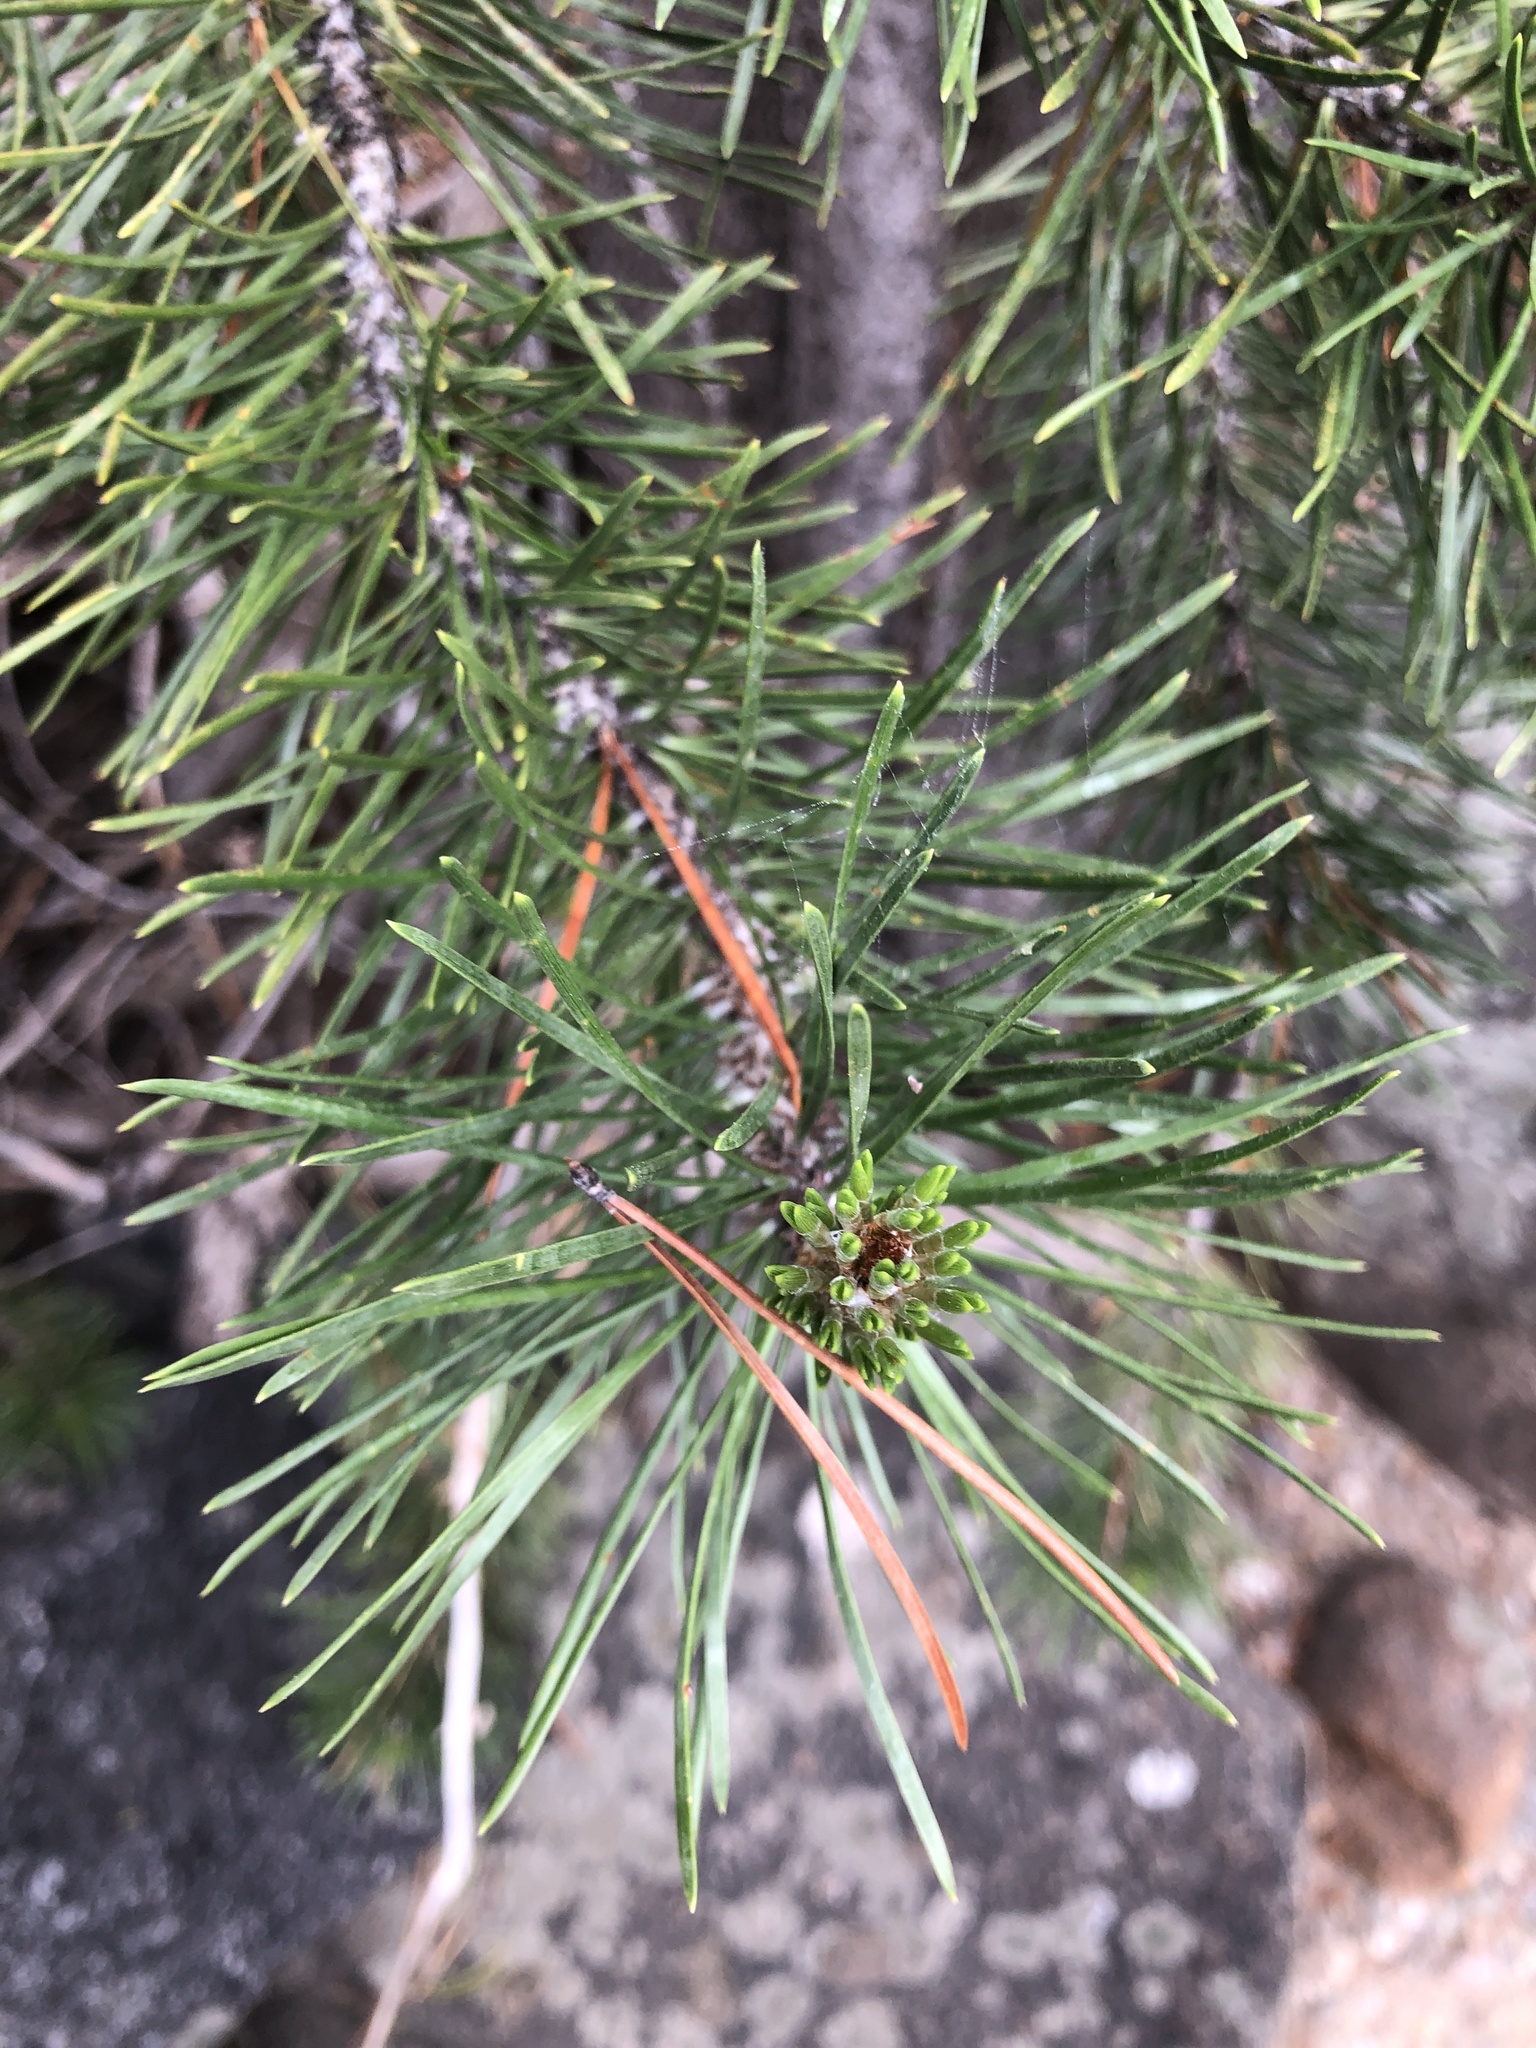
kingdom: Plantae
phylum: Tracheophyta
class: Pinopsida
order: Pinales
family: Pinaceae
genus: Pinus
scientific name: Pinus contorta
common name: Lodgepole pine
